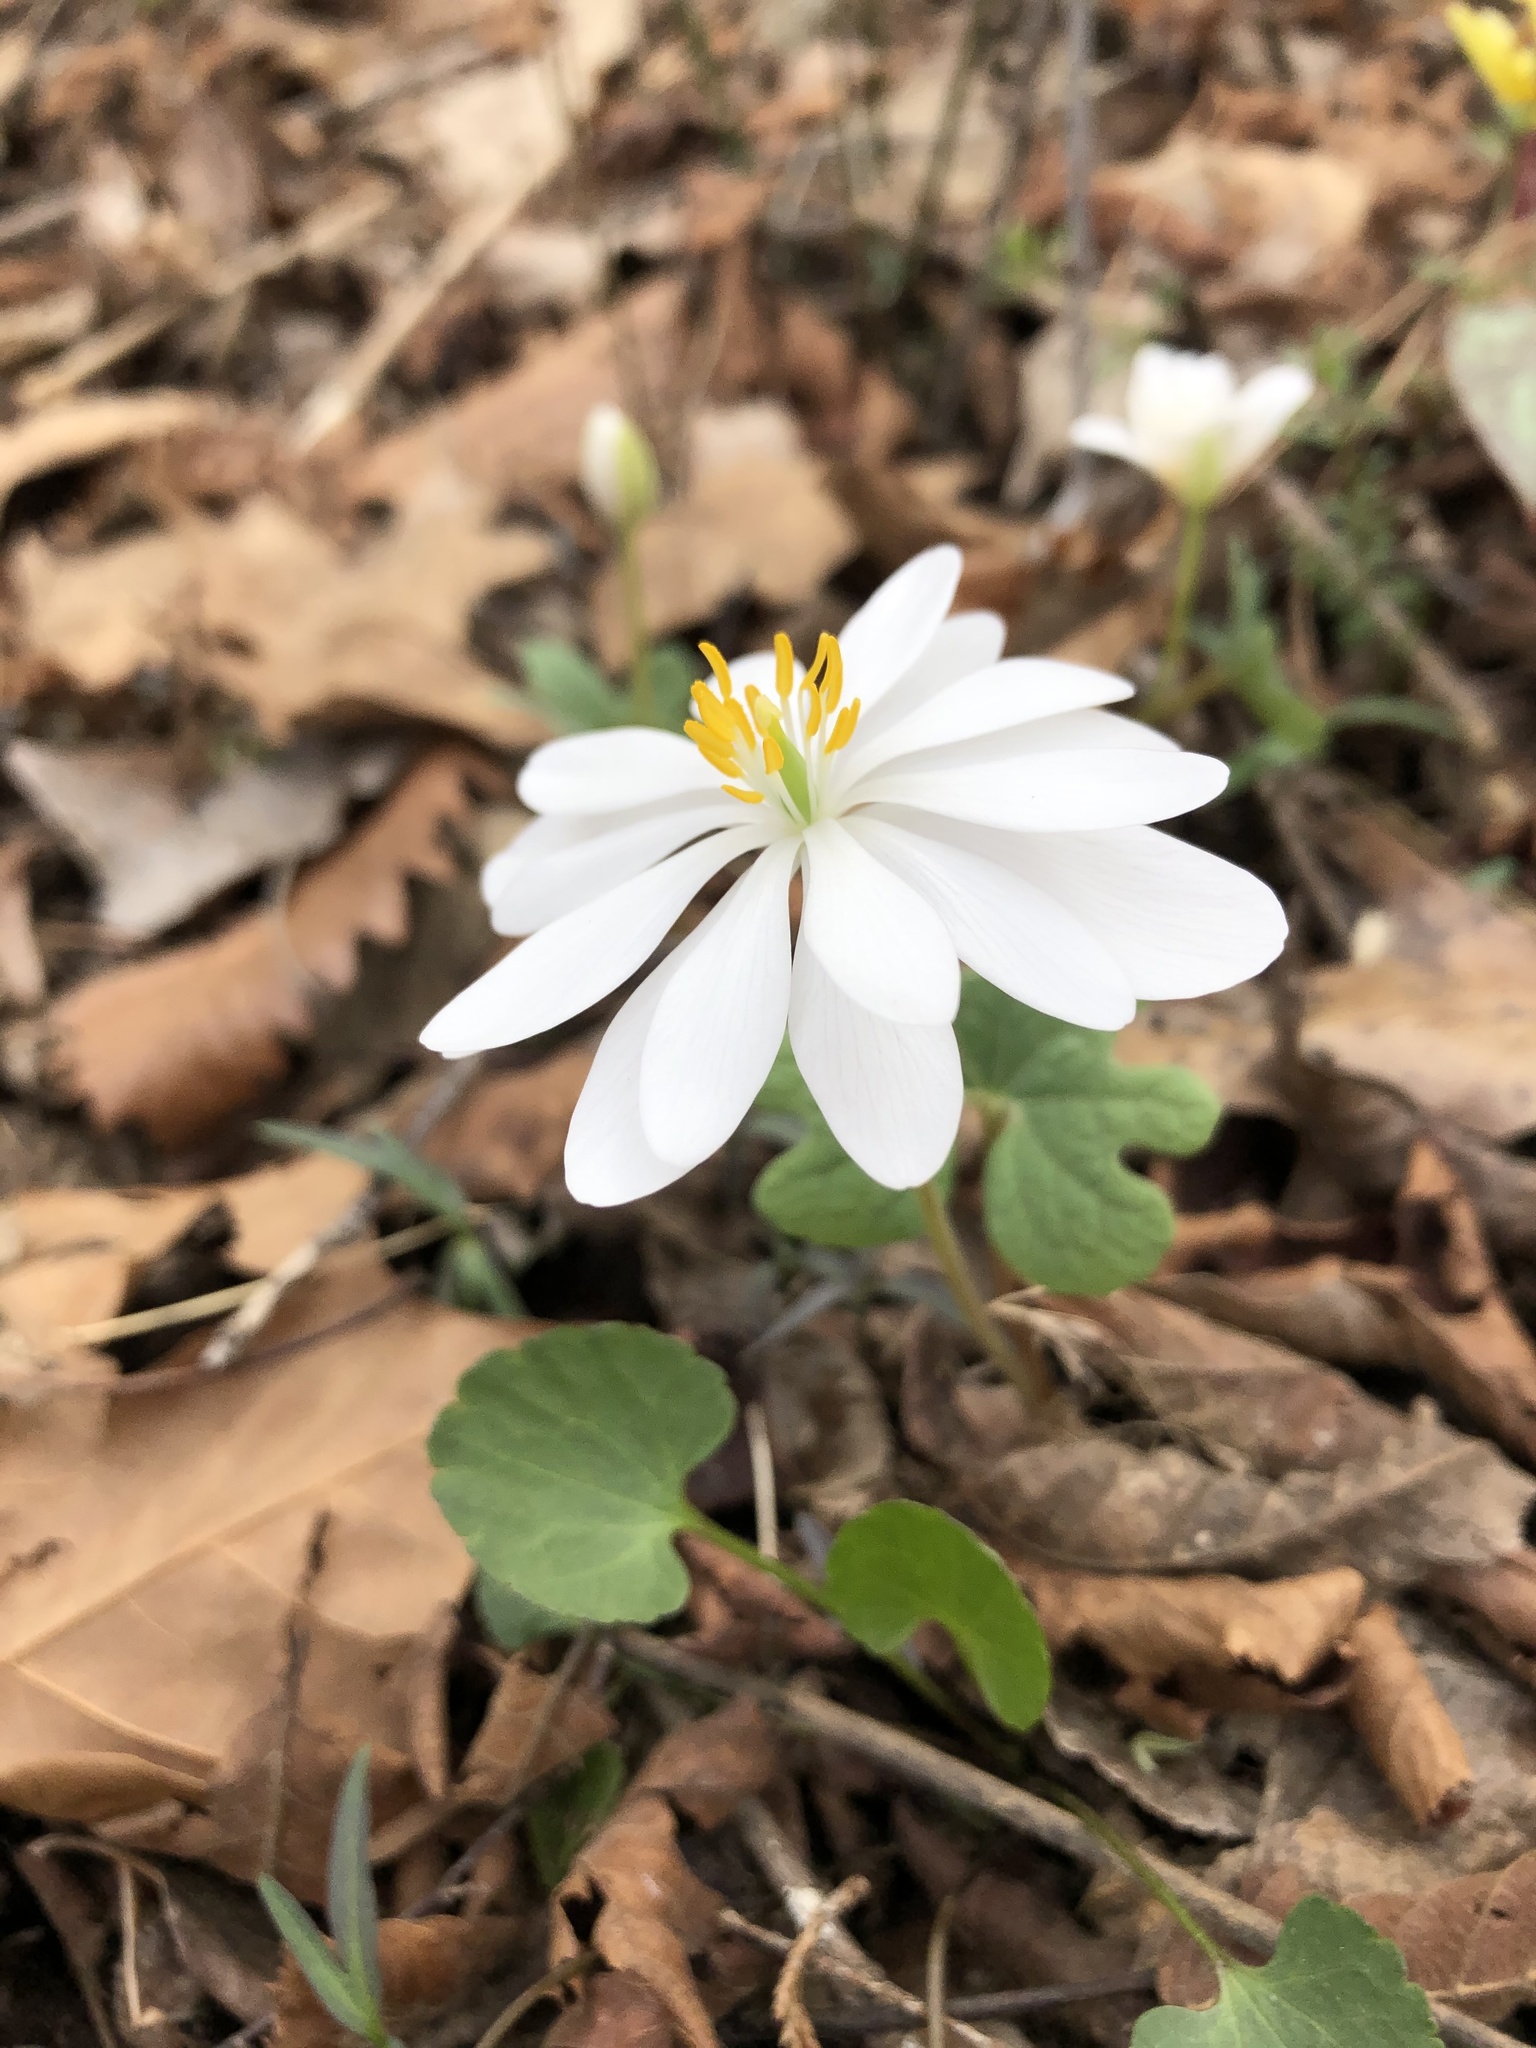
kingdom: Plantae
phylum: Tracheophyta
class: Magnoliopsida
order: Ranunculales
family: Papaveraceae
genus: Sanguinaria
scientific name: Sanguinaria canadensis
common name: Bloodroot
